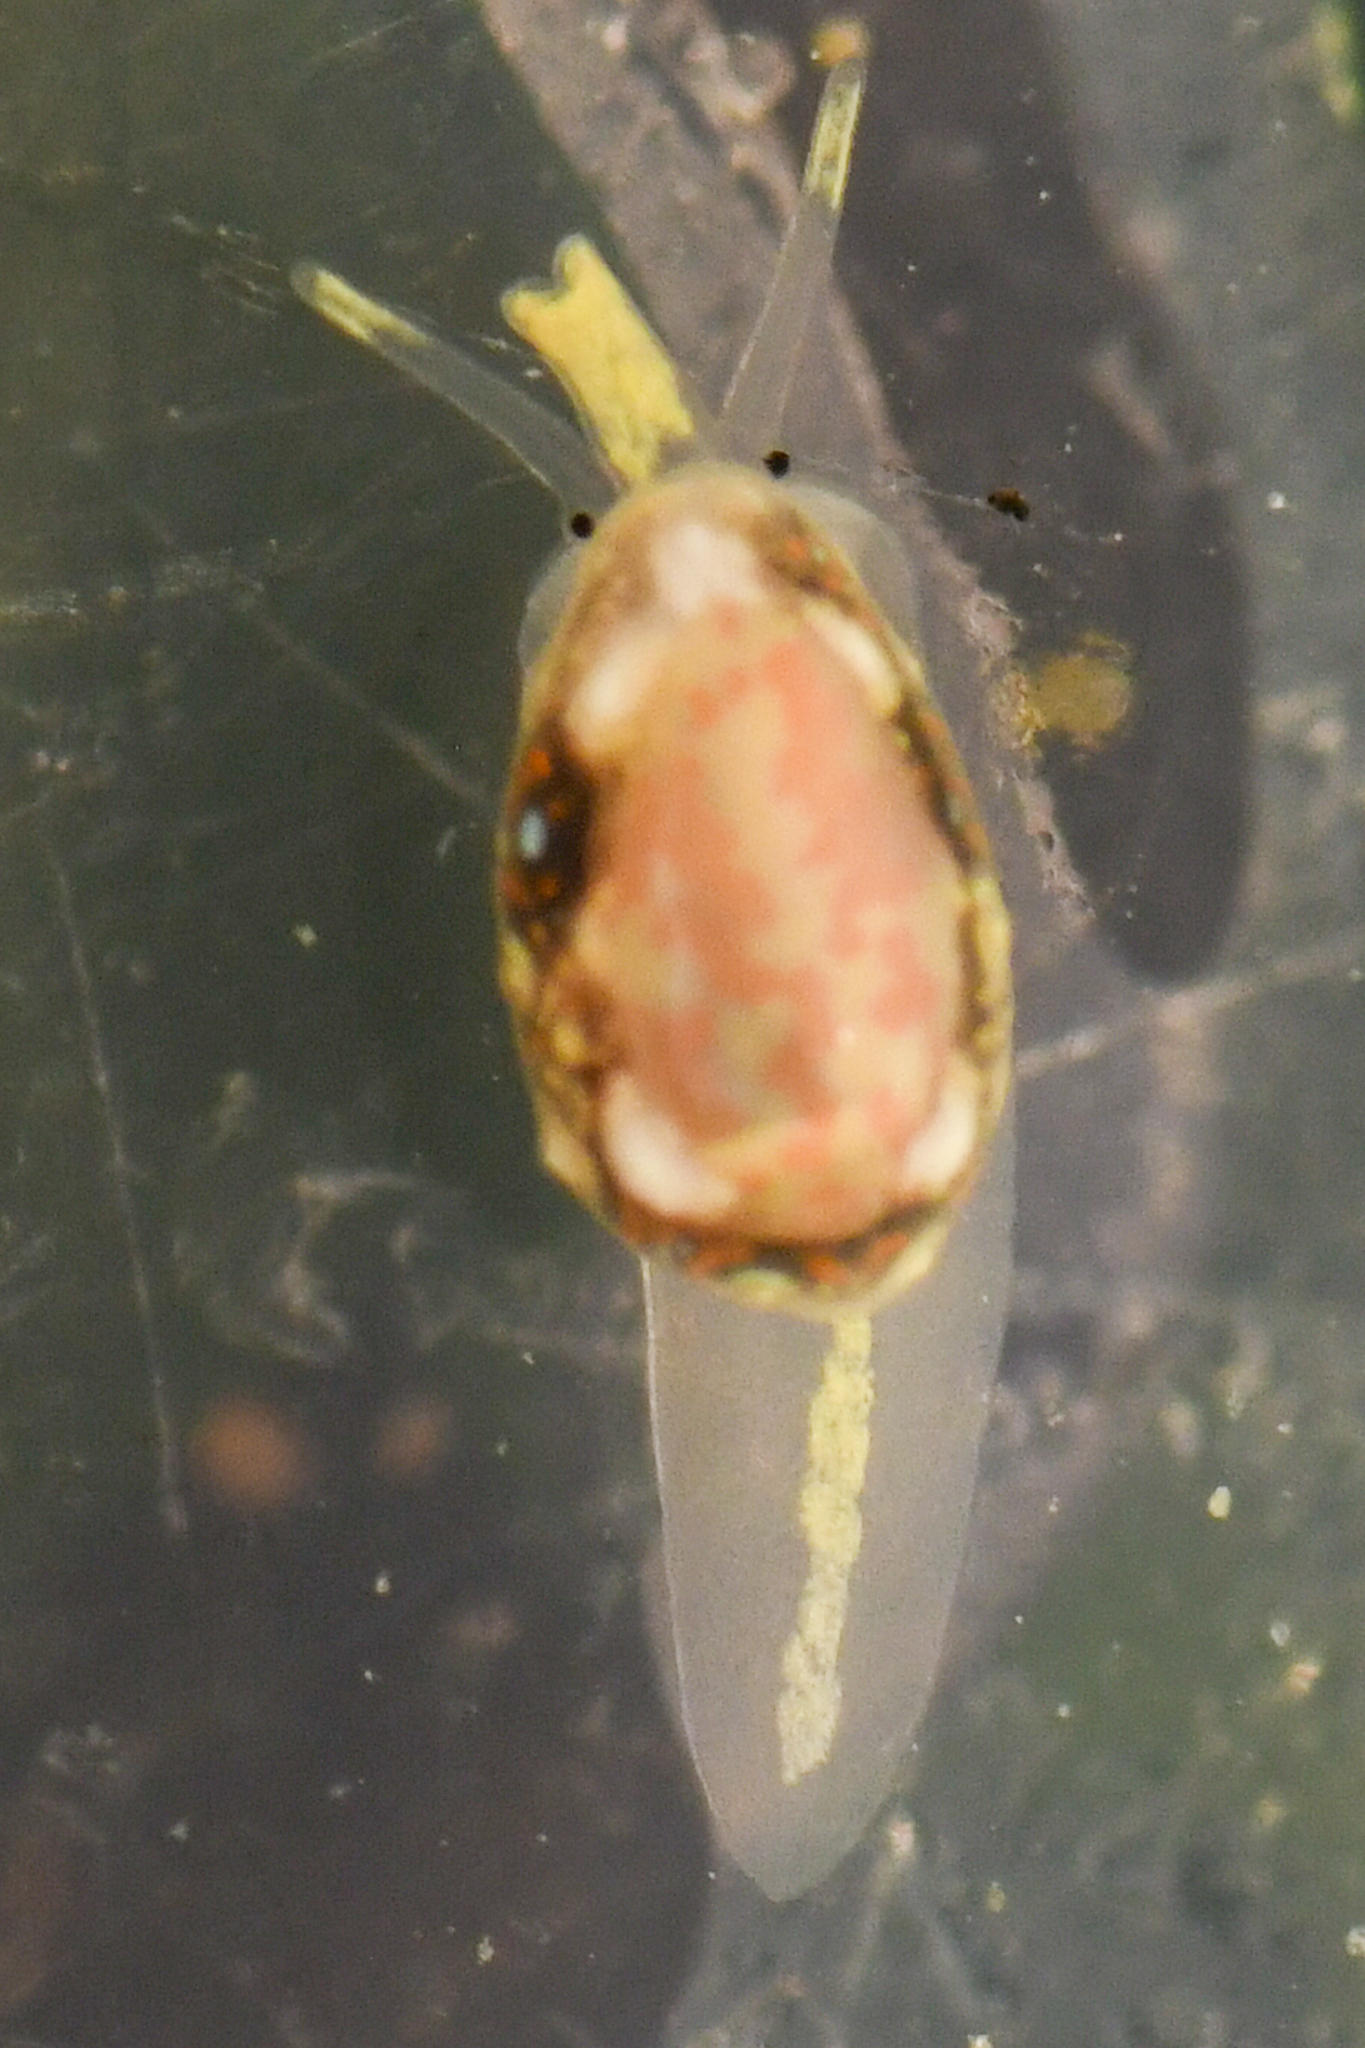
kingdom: Animalia
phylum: Mollusca
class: Gastropoda
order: Neogastropoda
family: Granulinidae
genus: Granulina
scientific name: Granulina margaritula
